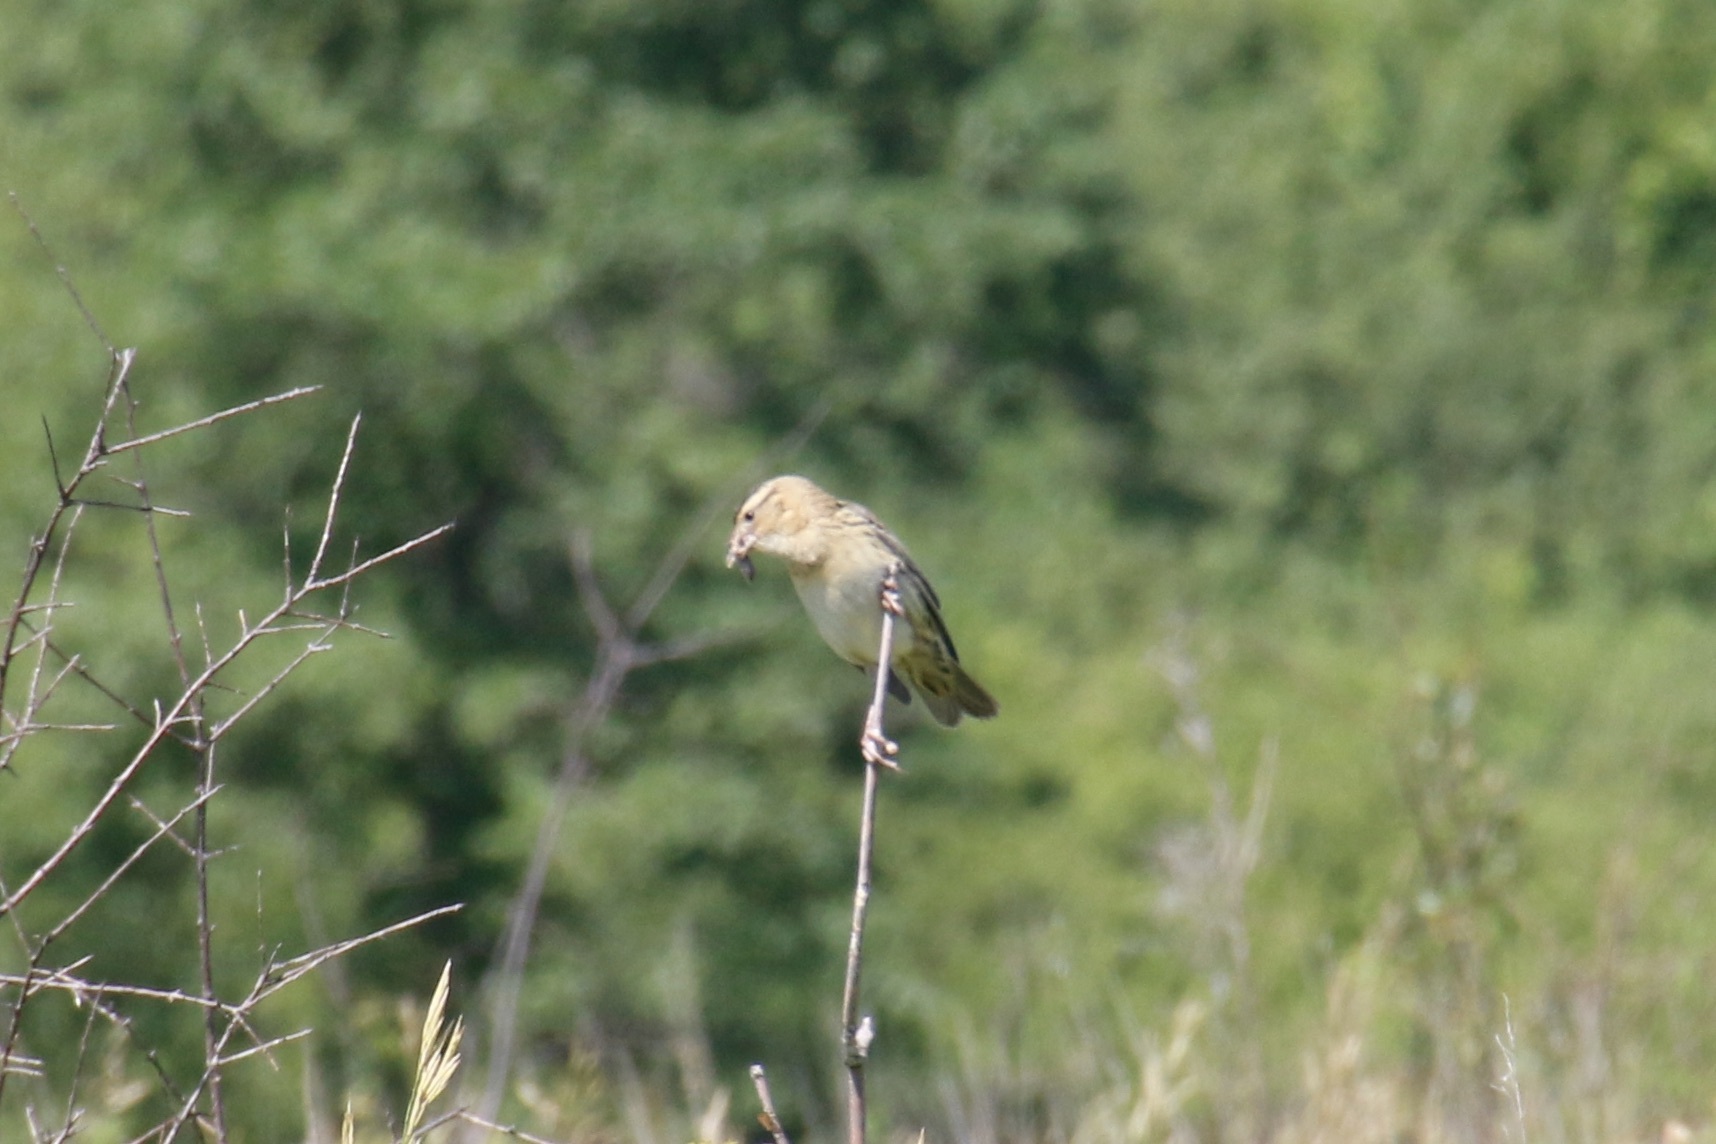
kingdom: Animalia
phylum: Chordata
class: Aves
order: Passeriformes
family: Icteridae
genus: Dolichonyx
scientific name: Dolichonyx oryzivorus
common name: Bobolink
